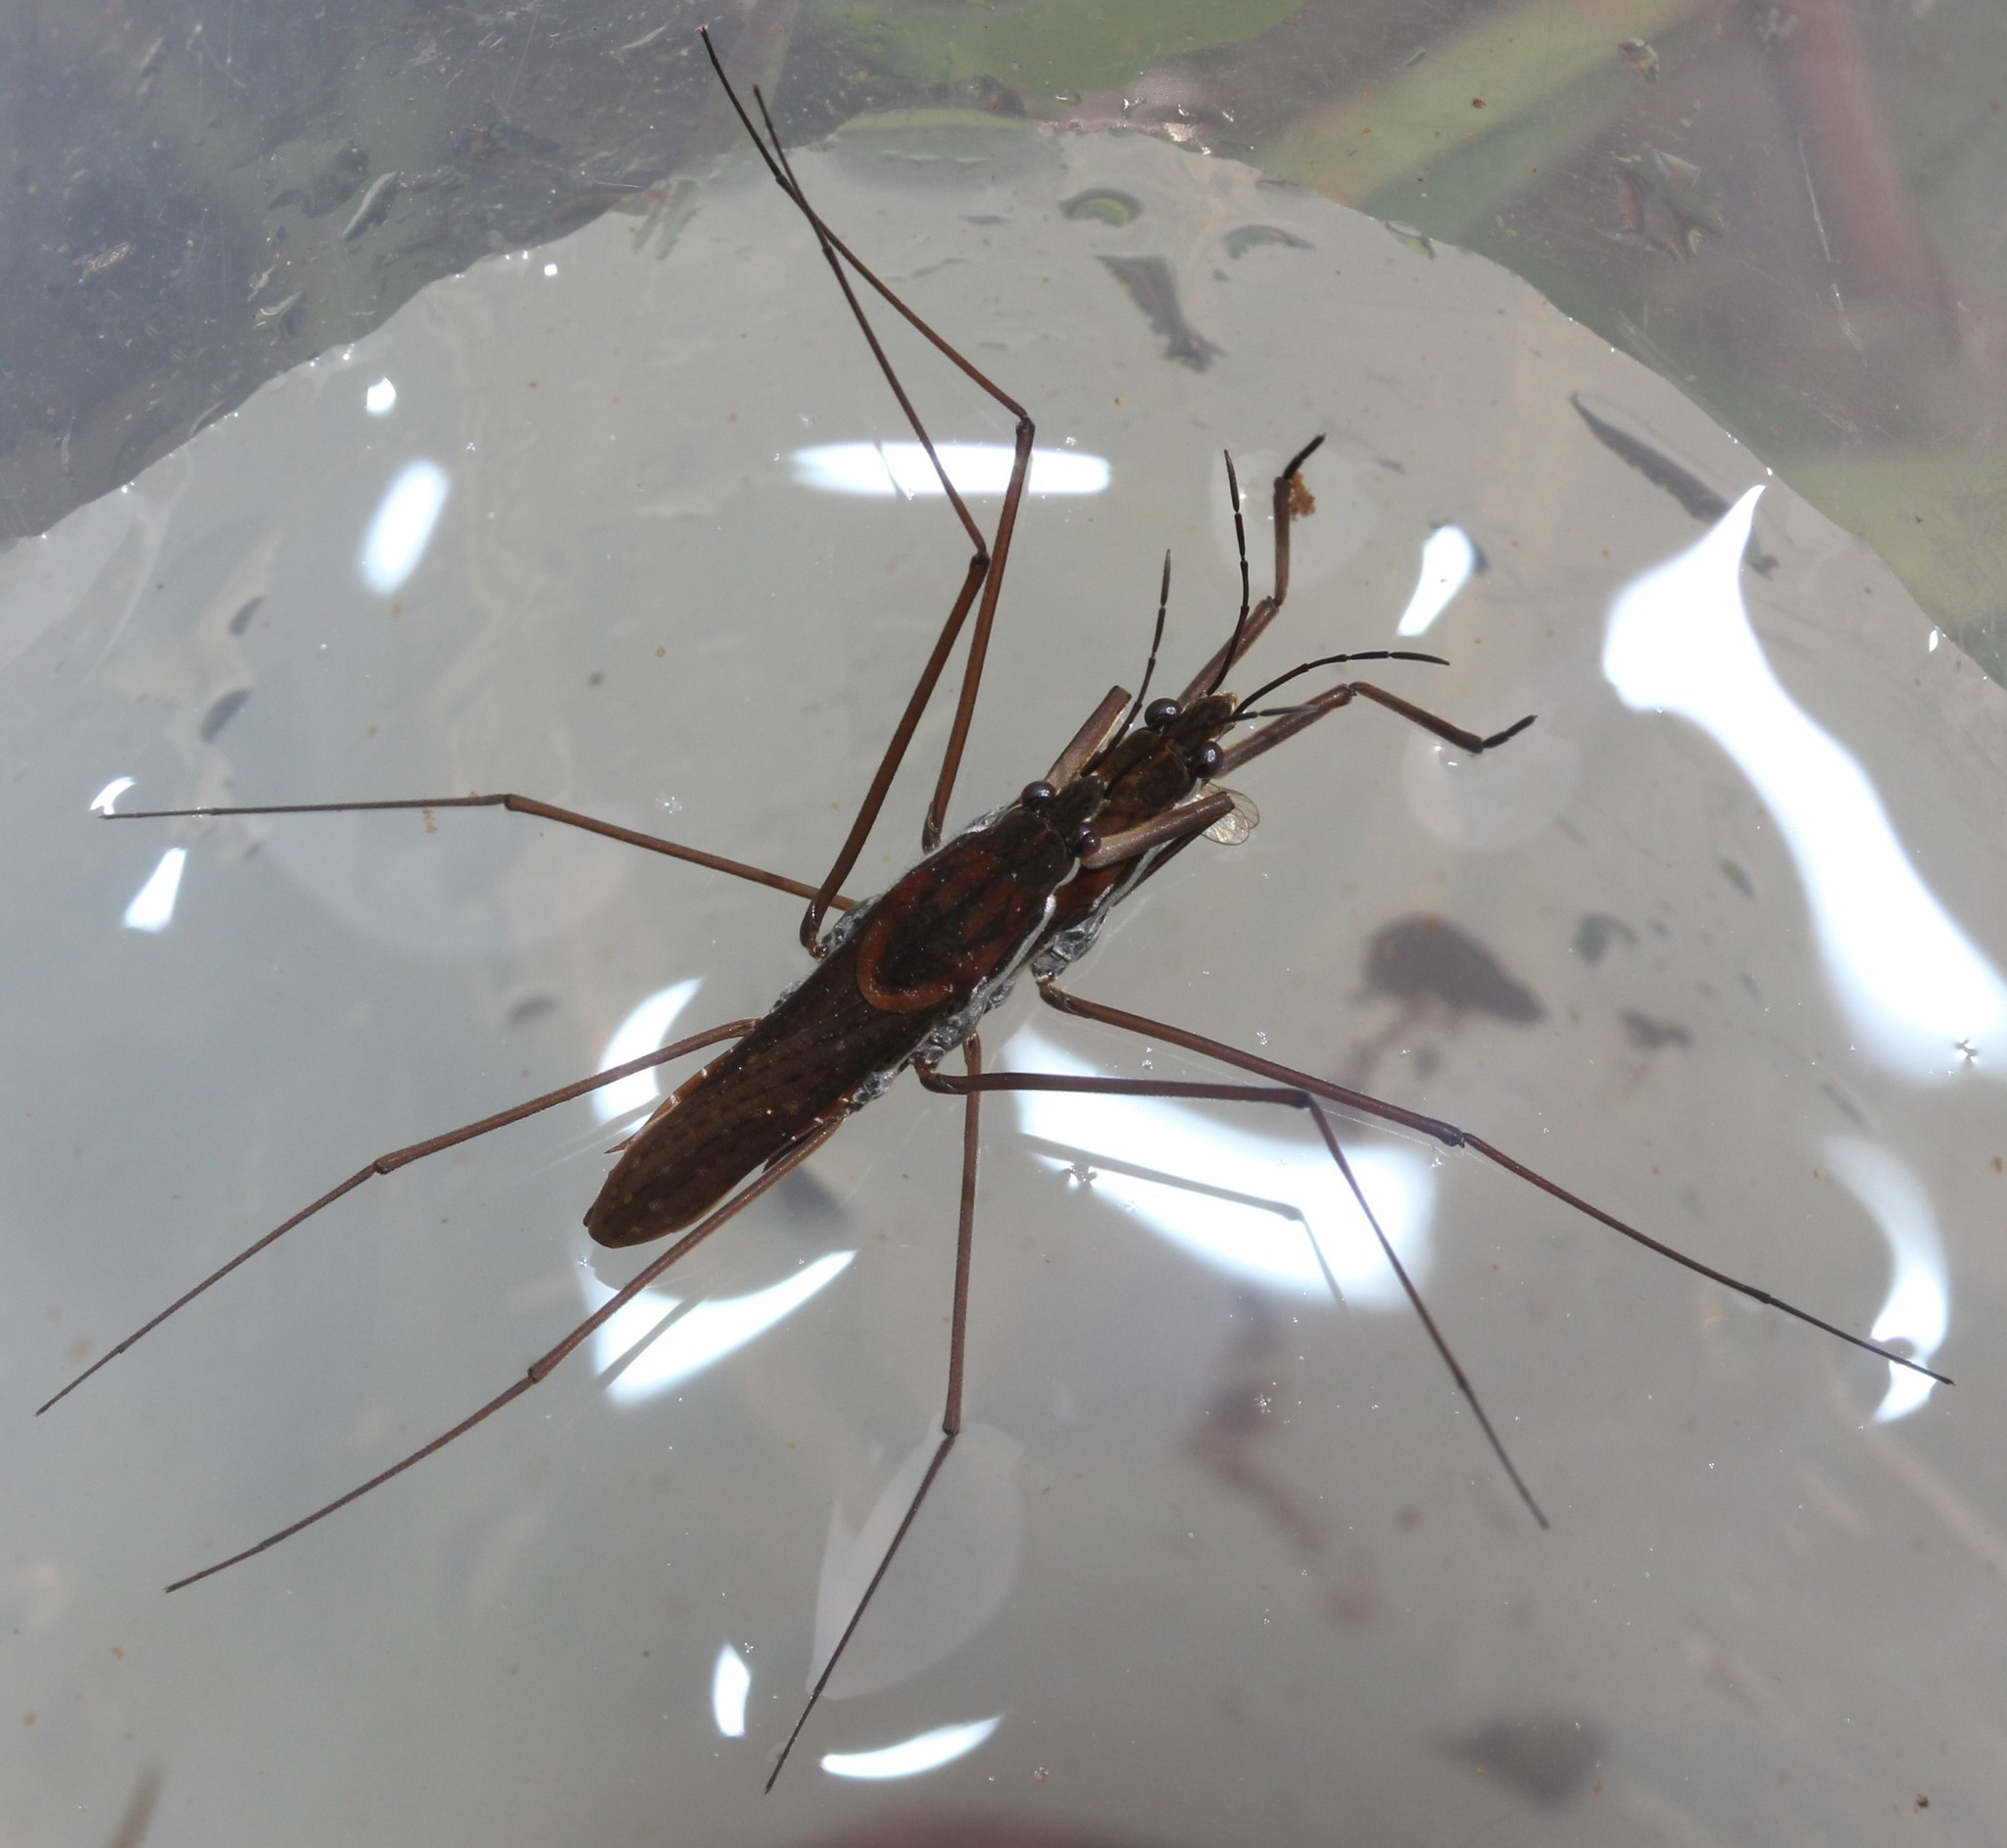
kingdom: Animalia
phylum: Arthropoda
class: Insecta
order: Hemiptera
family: Gerridae
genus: Aquarius
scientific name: Aquarius remigis
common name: Common water strider
